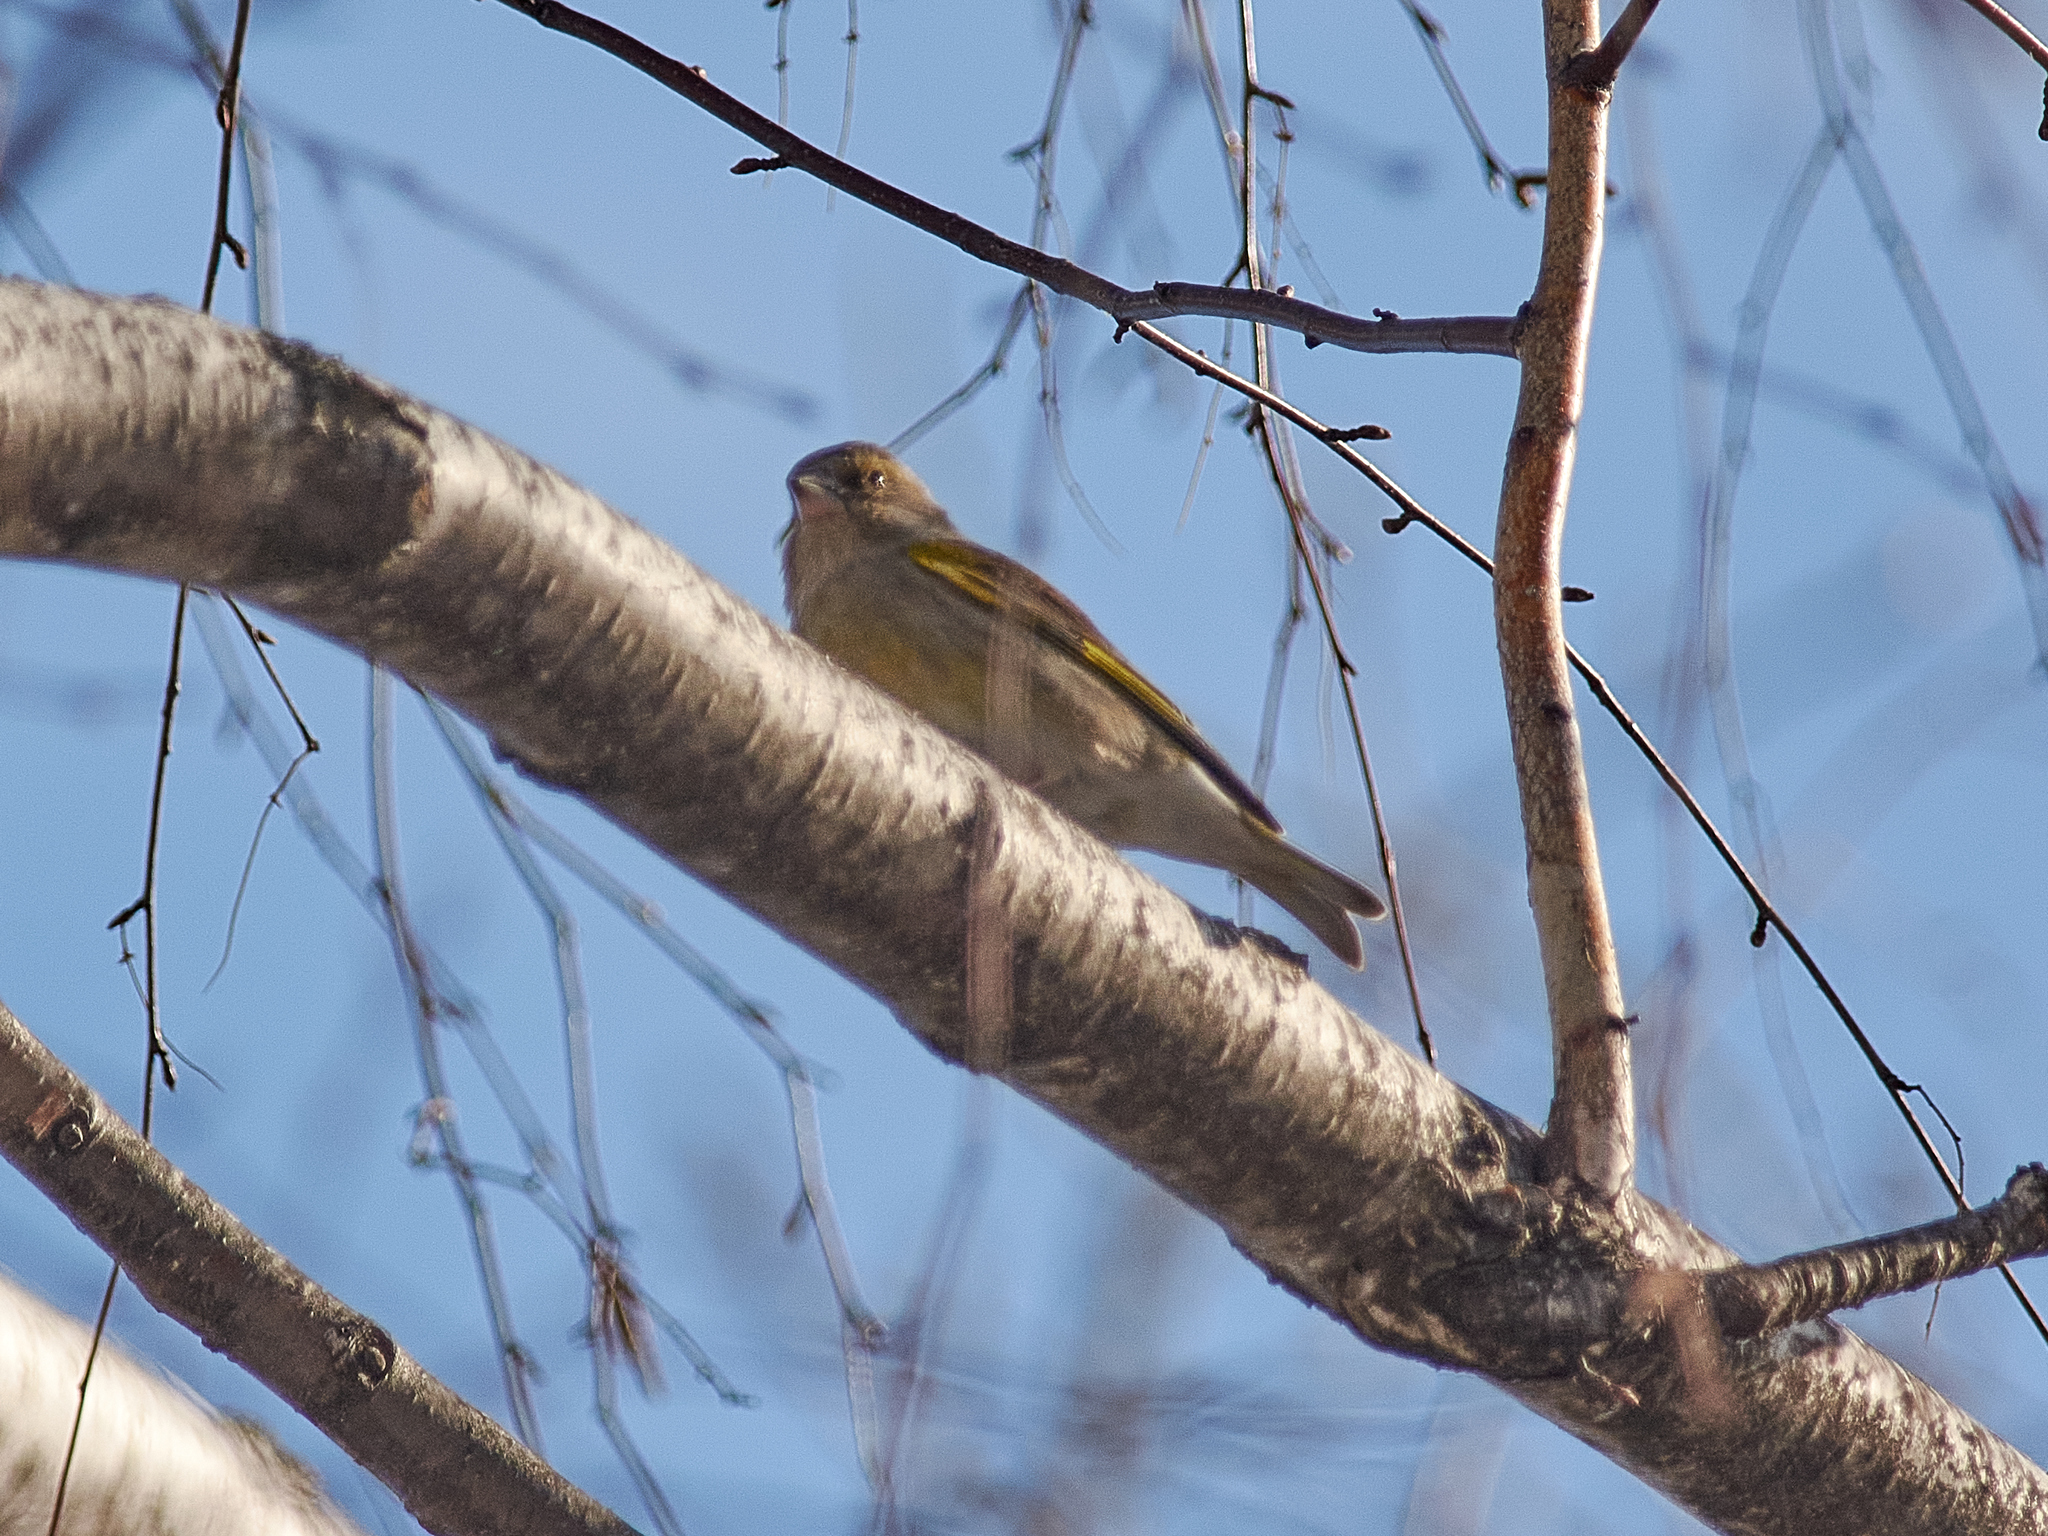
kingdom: Plantae
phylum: Tracheophyta
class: Liliopsida
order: Poales
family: Poaceae
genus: Chloris
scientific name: Chloris chloris
